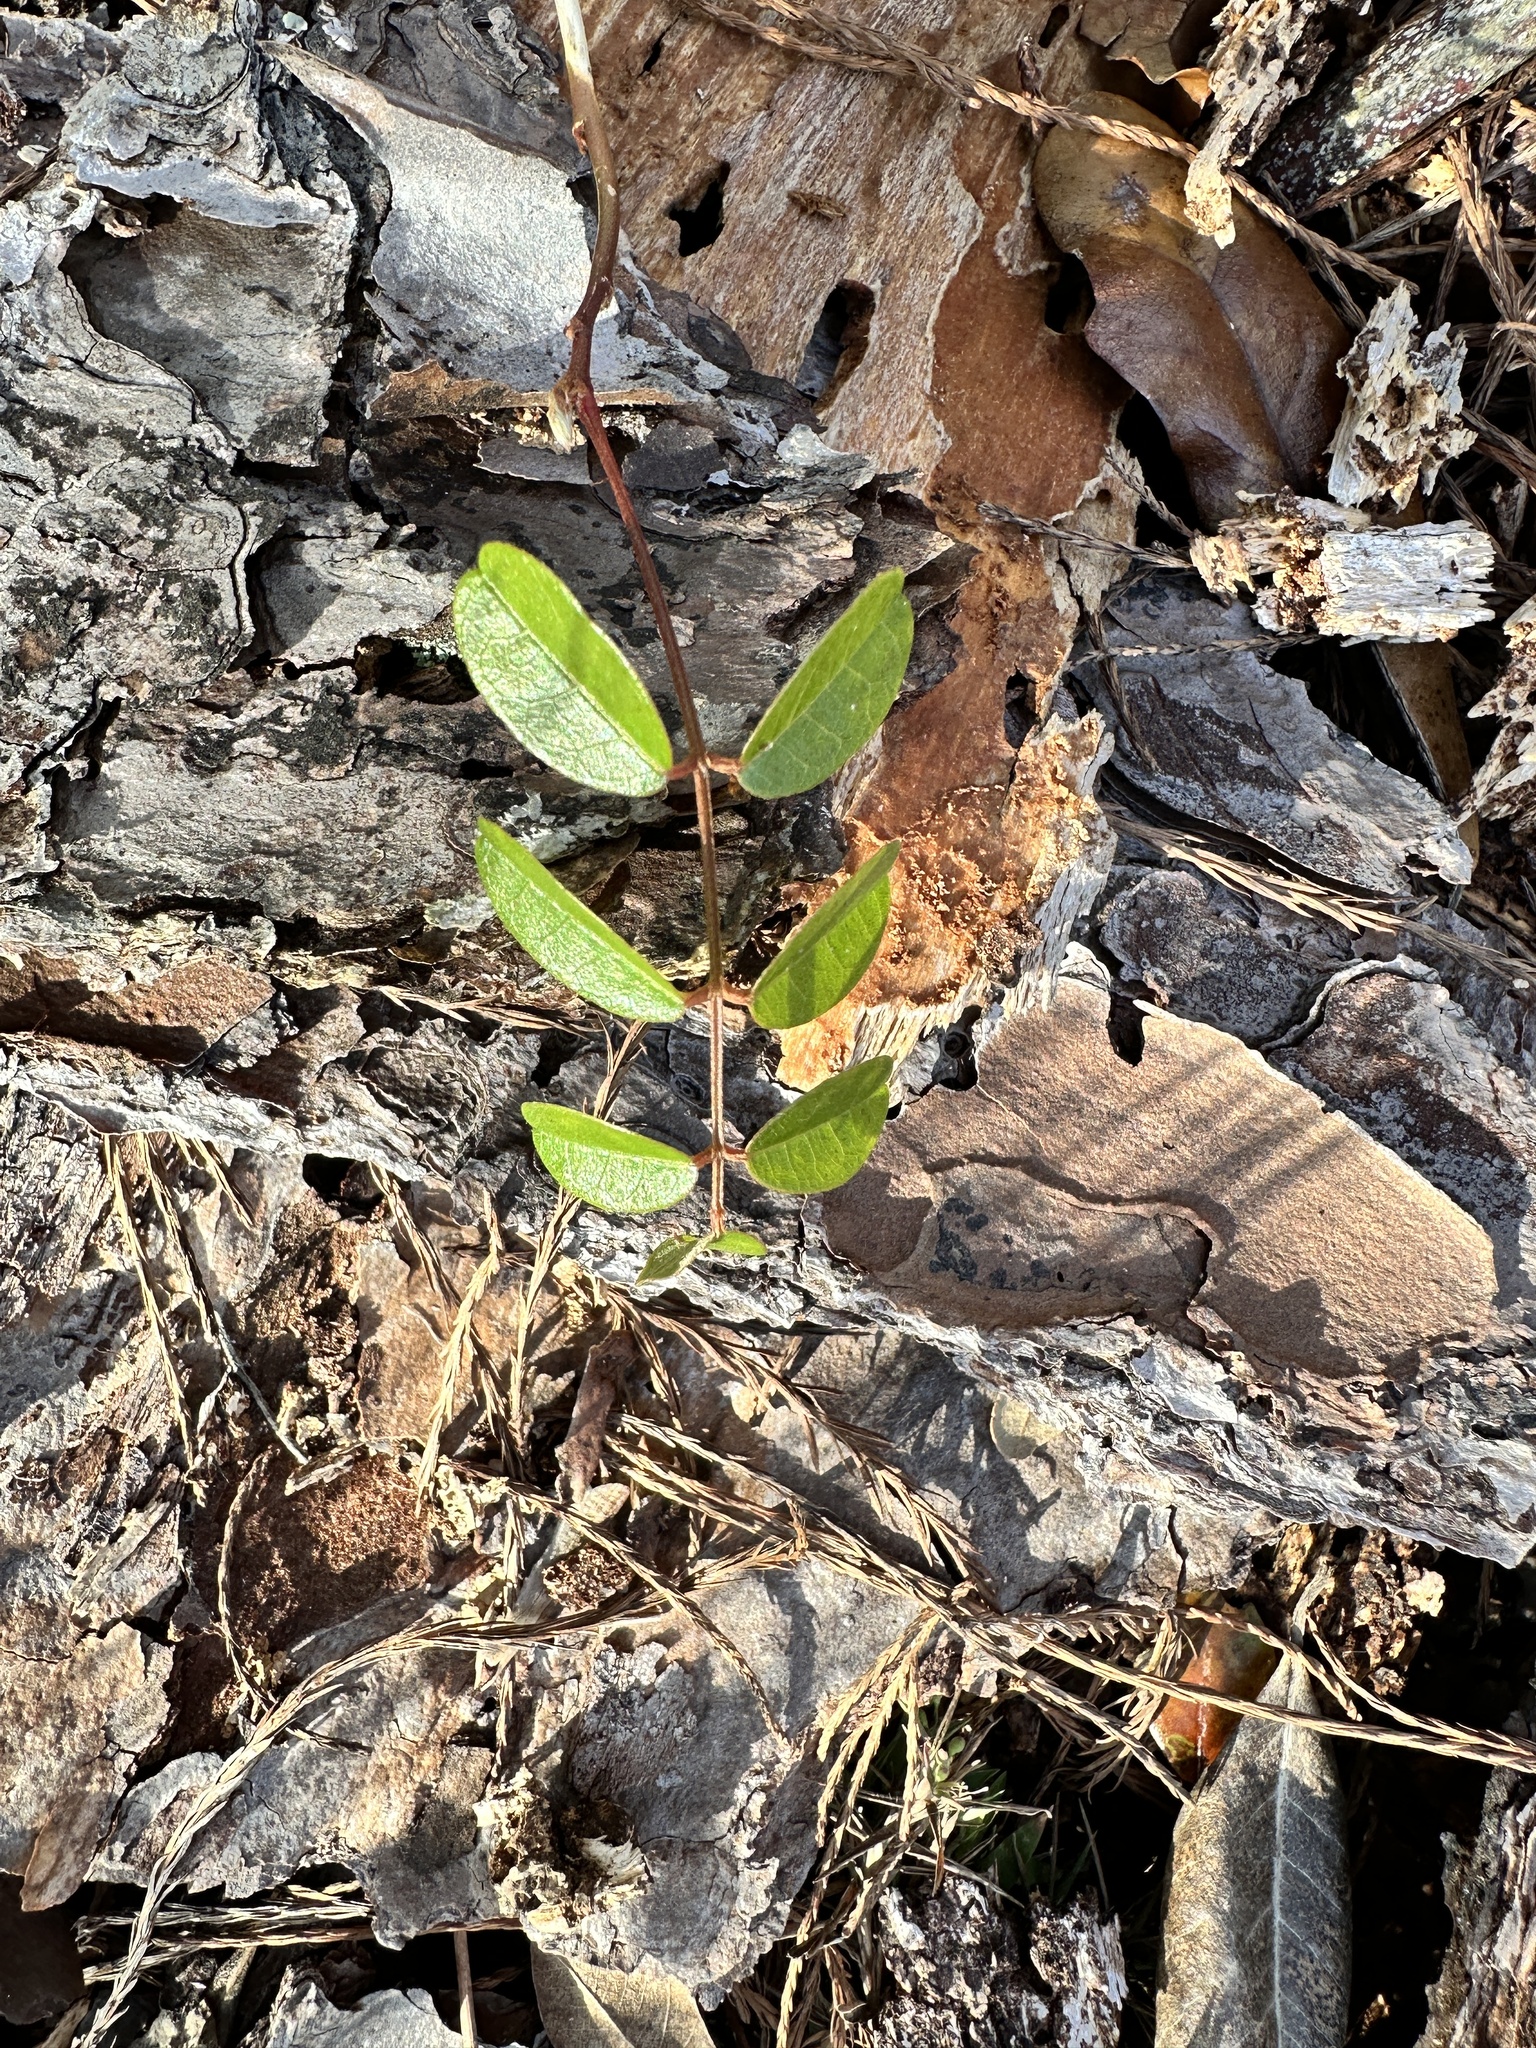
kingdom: Plantae
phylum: Tracheophyta
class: Magnoliopsida
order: Fabales
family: Fabaceae
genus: Galactia
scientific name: Galactia elliottii
